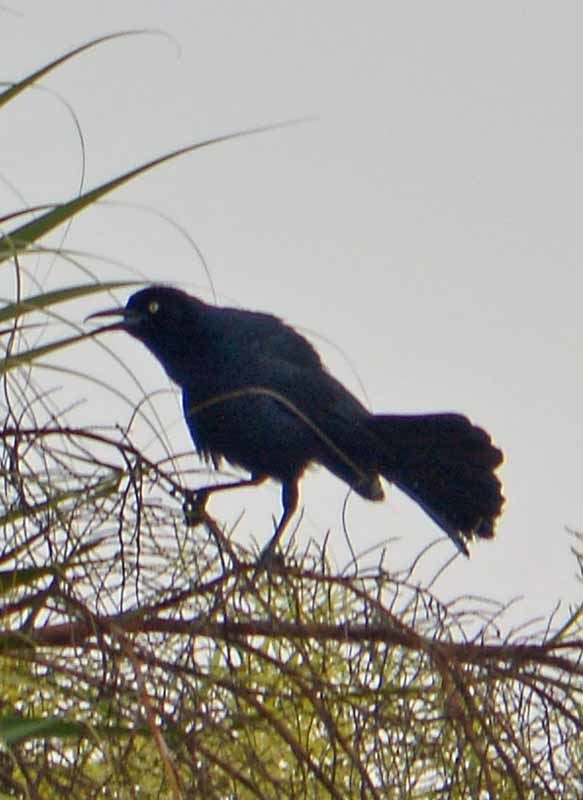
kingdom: Animalia
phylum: Chordata
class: Aves
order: Passeriformes
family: Icteridae
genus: Quiscalus
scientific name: Quiscalus mexicanus
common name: Great-tailed grackle
